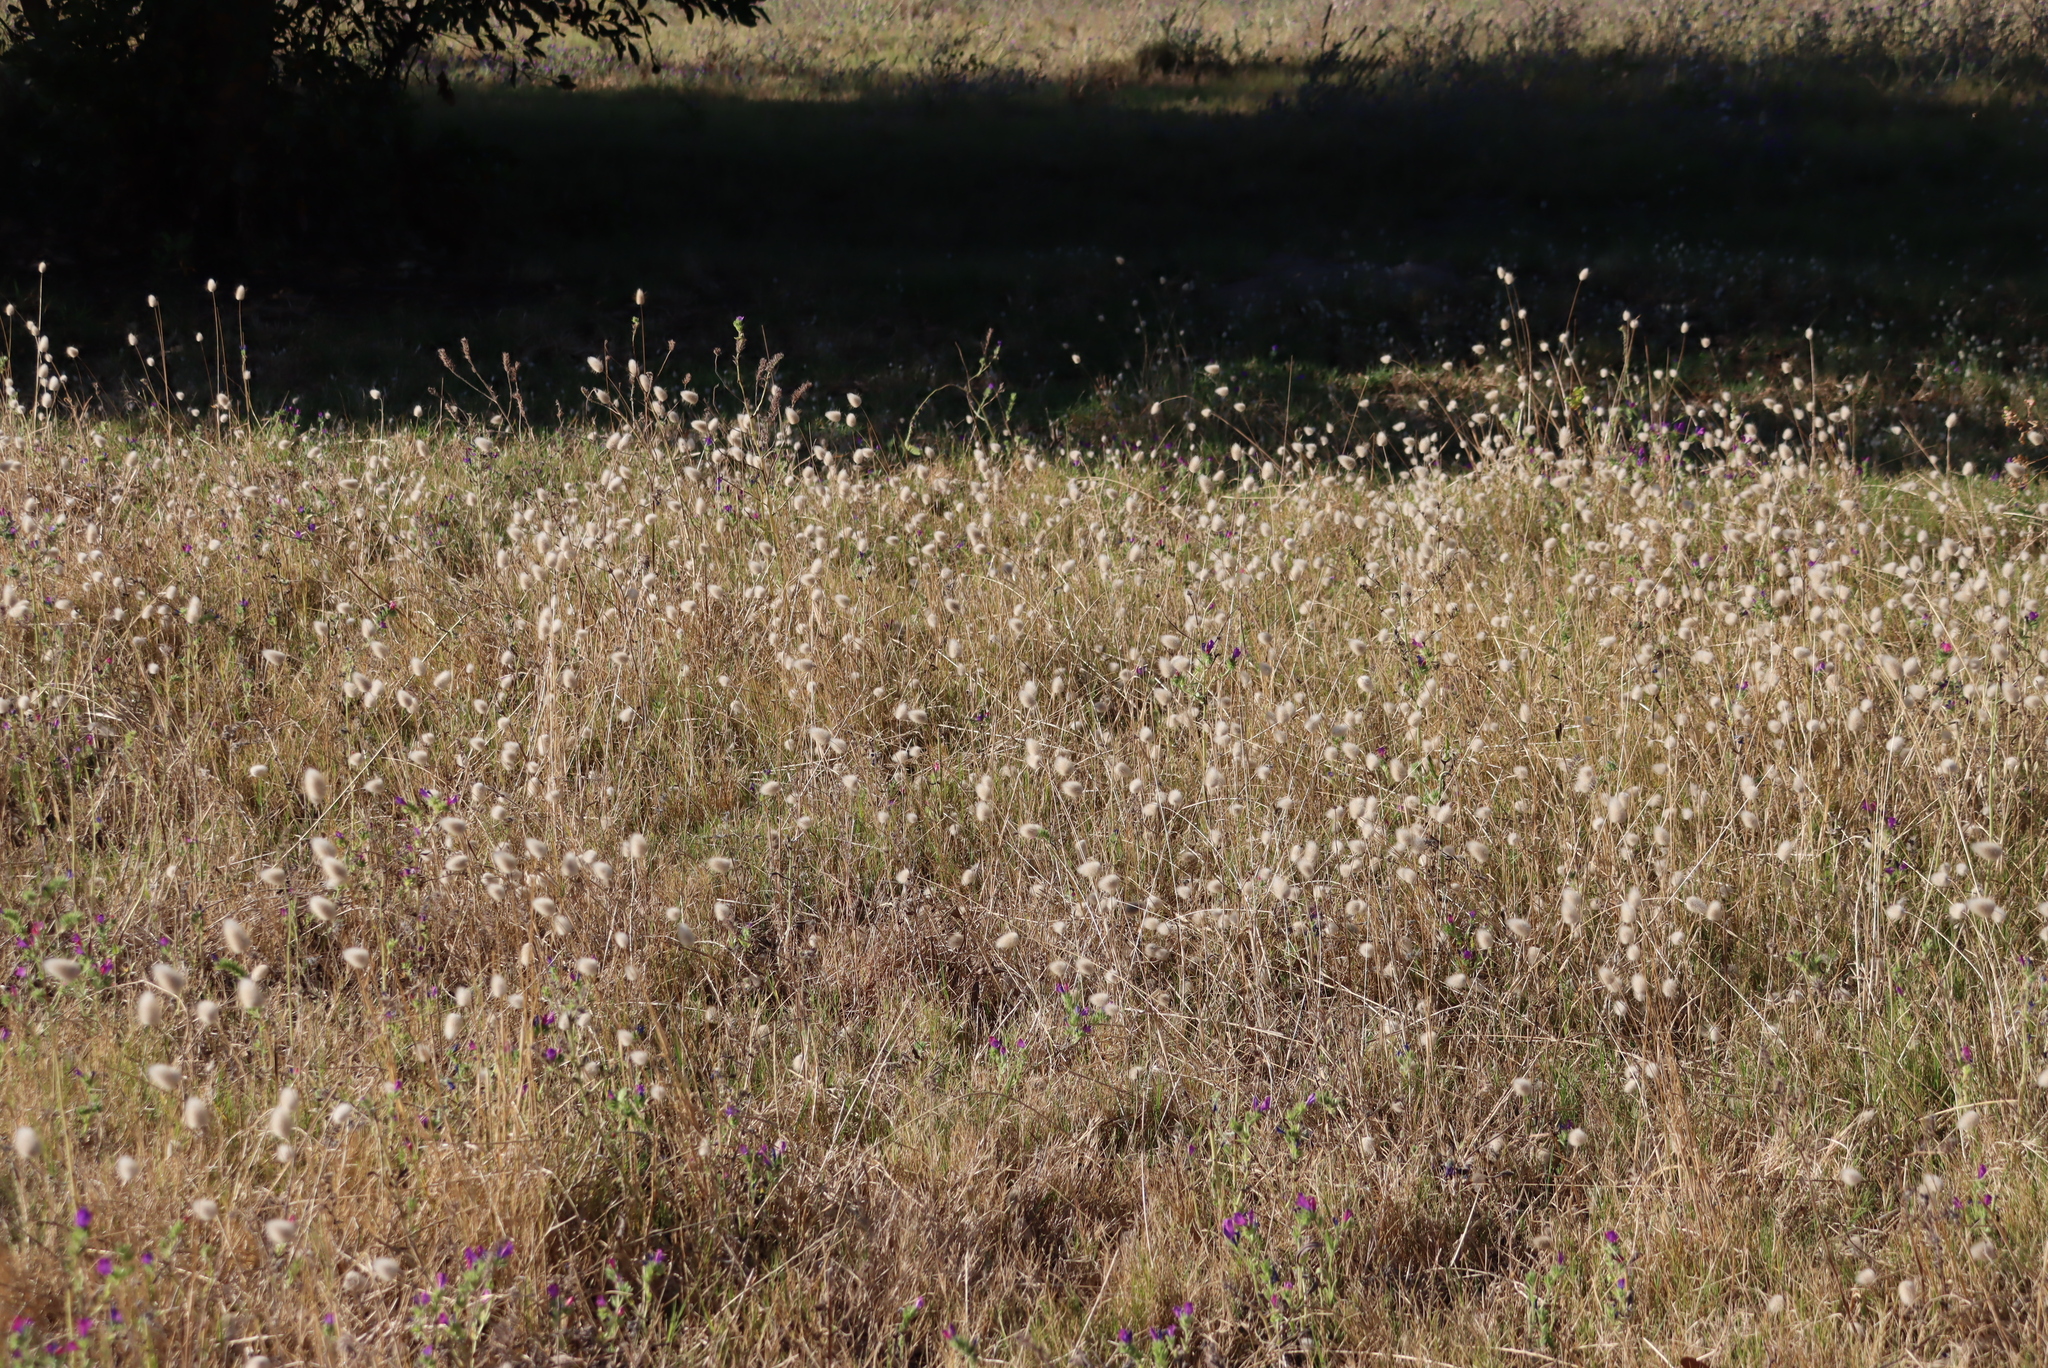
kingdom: Plantae
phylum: Tracheophyta
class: Liliopsida
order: Poales
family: Poaceae
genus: Lagurus
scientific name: Lagurus ovatus
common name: Hare's-tail
